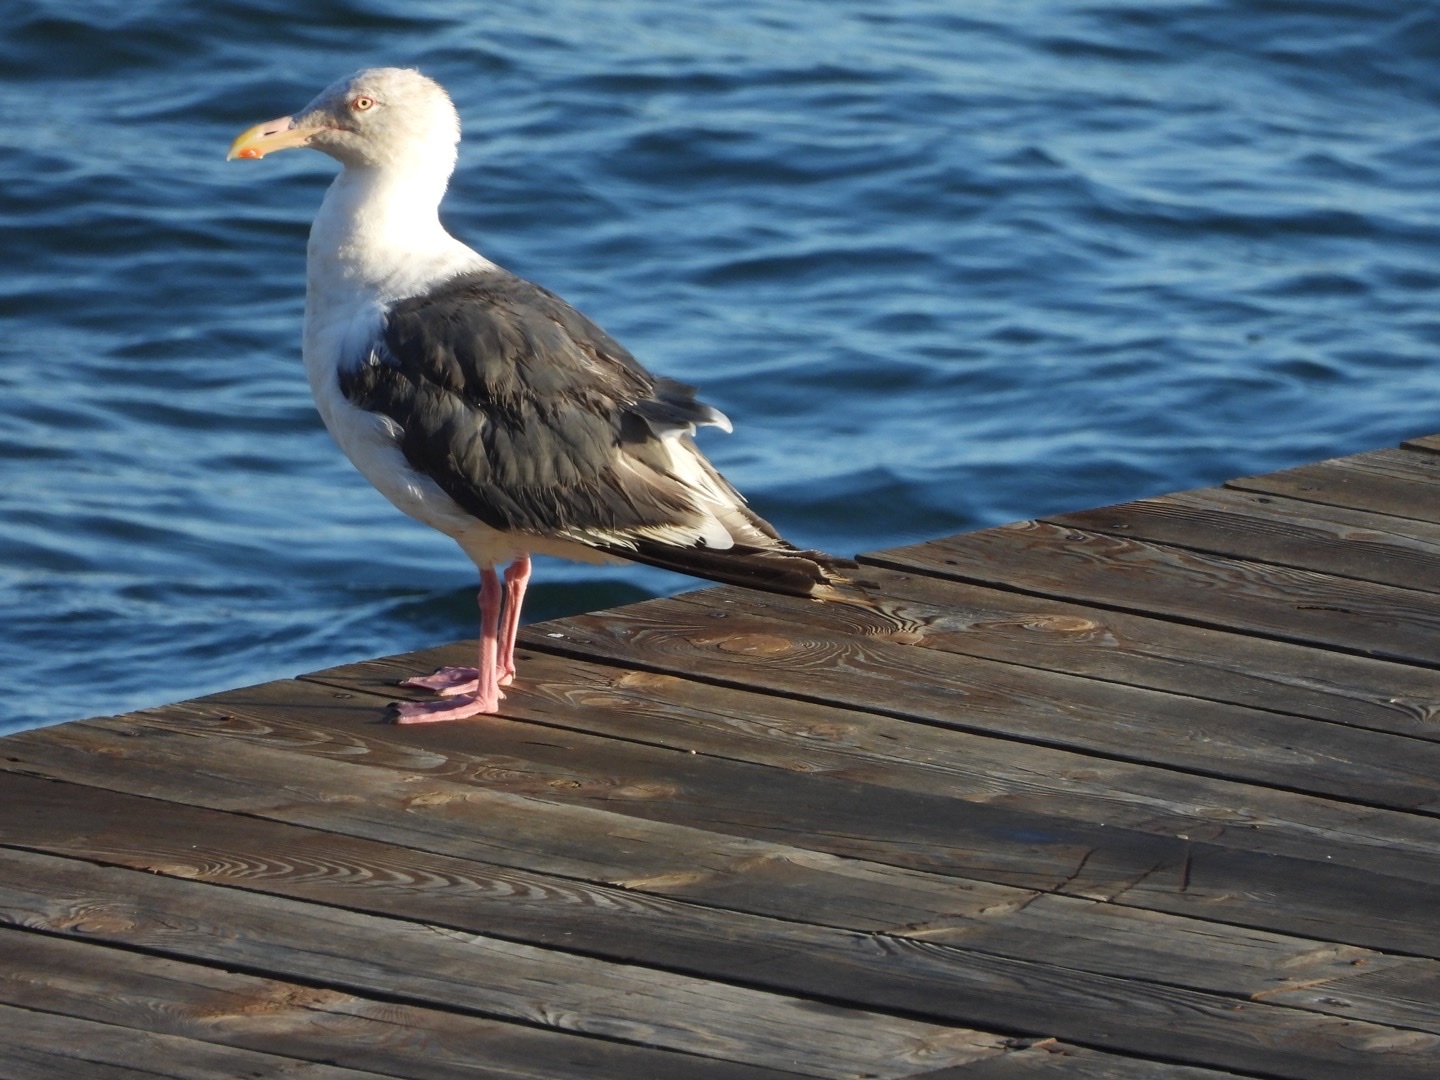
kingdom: Animalia
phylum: Chordata
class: Aves
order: Charadriiformes
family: Laridae
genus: Larus
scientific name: Larus schistisagus
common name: Slaty-backed gull
